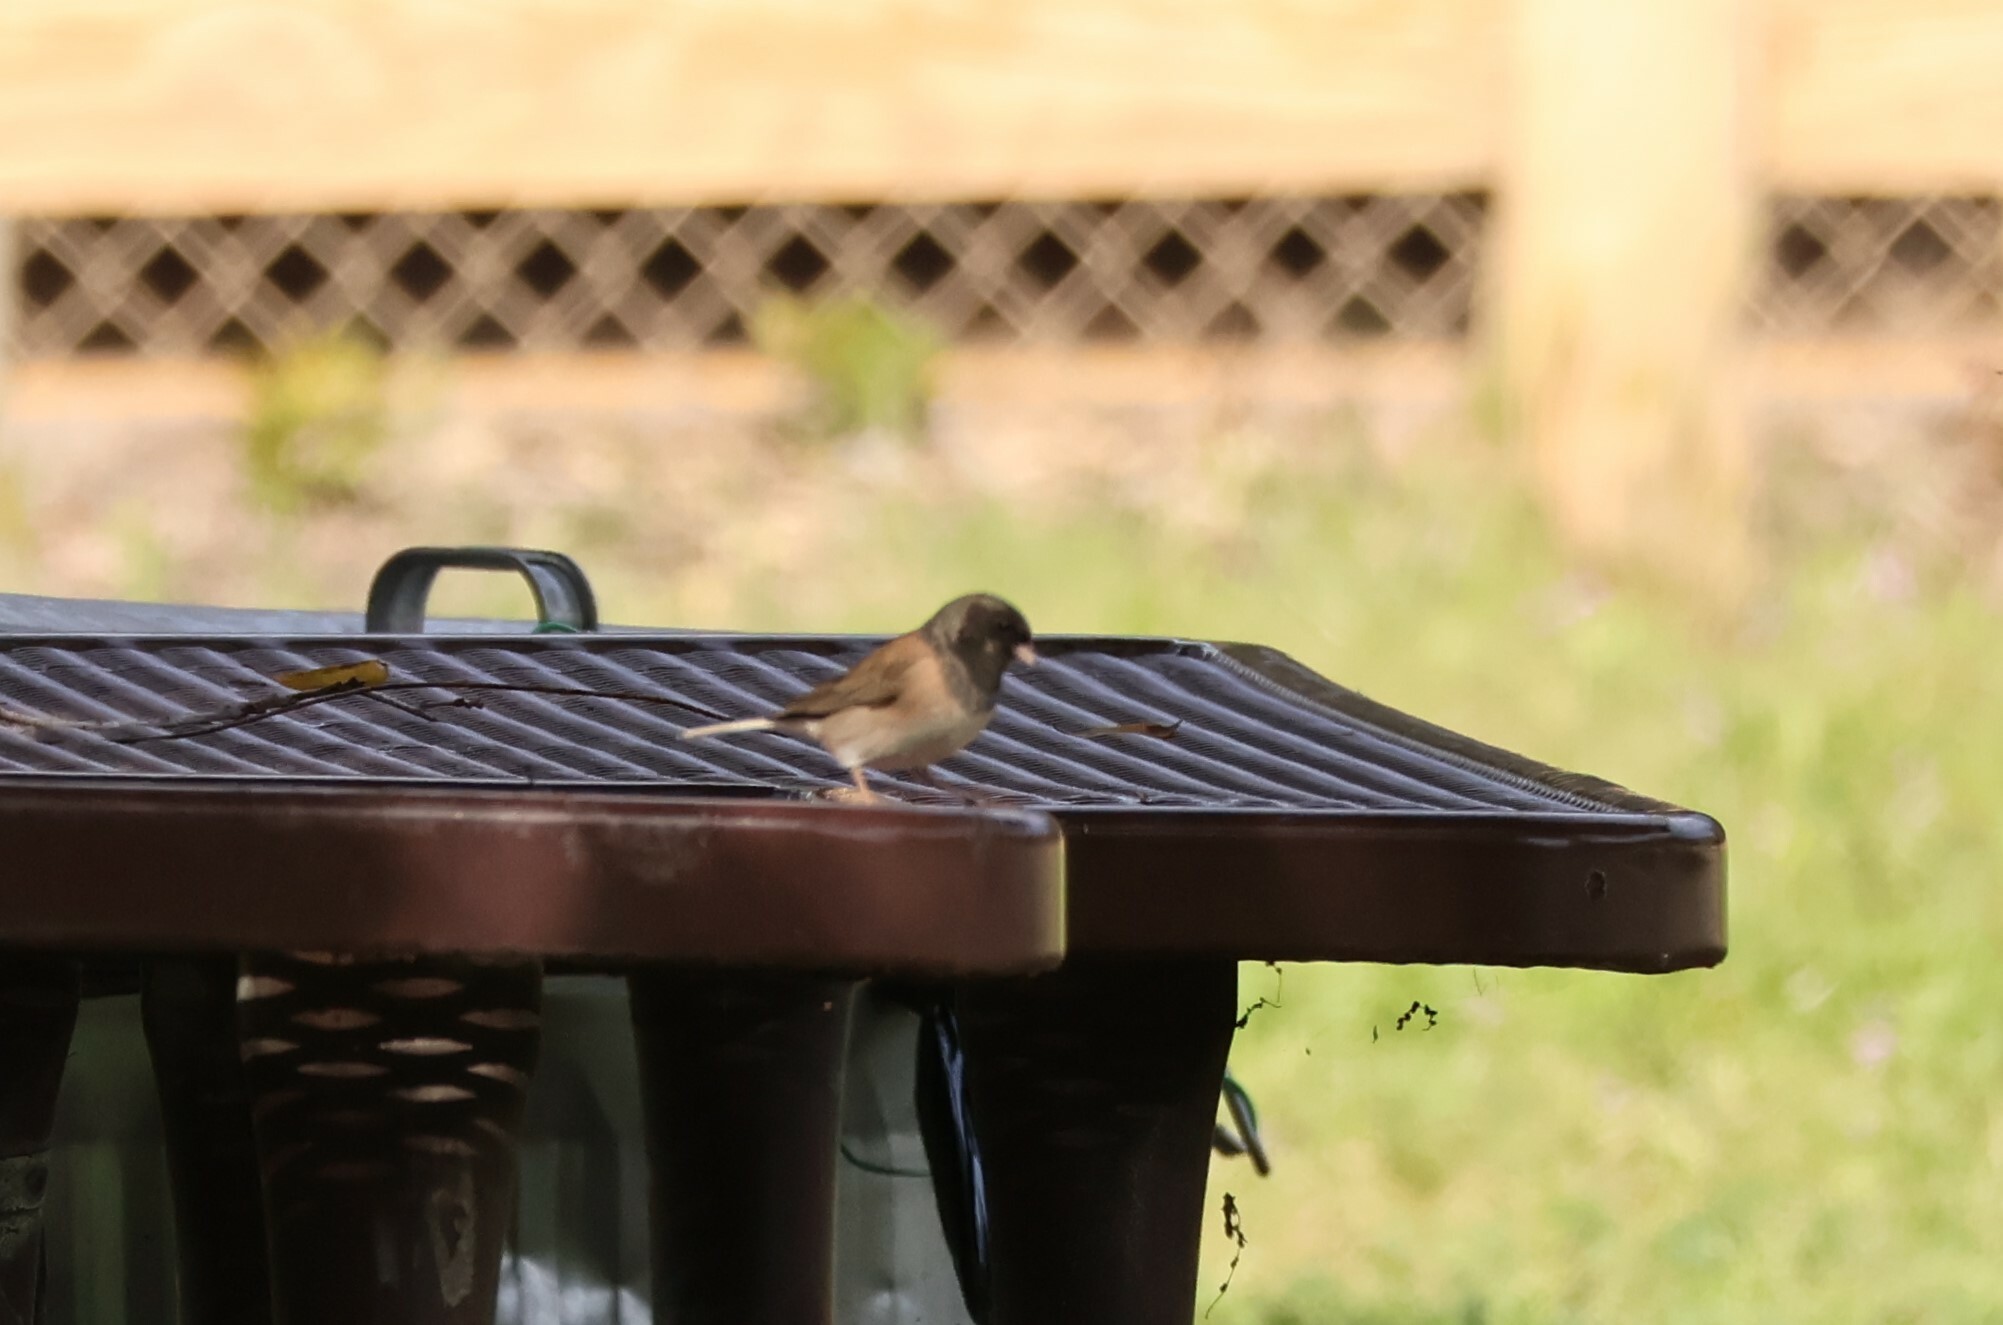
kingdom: Animalia
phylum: Chordata
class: Aves
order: Passeriformes
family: Passerellidae
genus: Junco
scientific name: Junco hyemalis
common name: Dark-eyed junco
